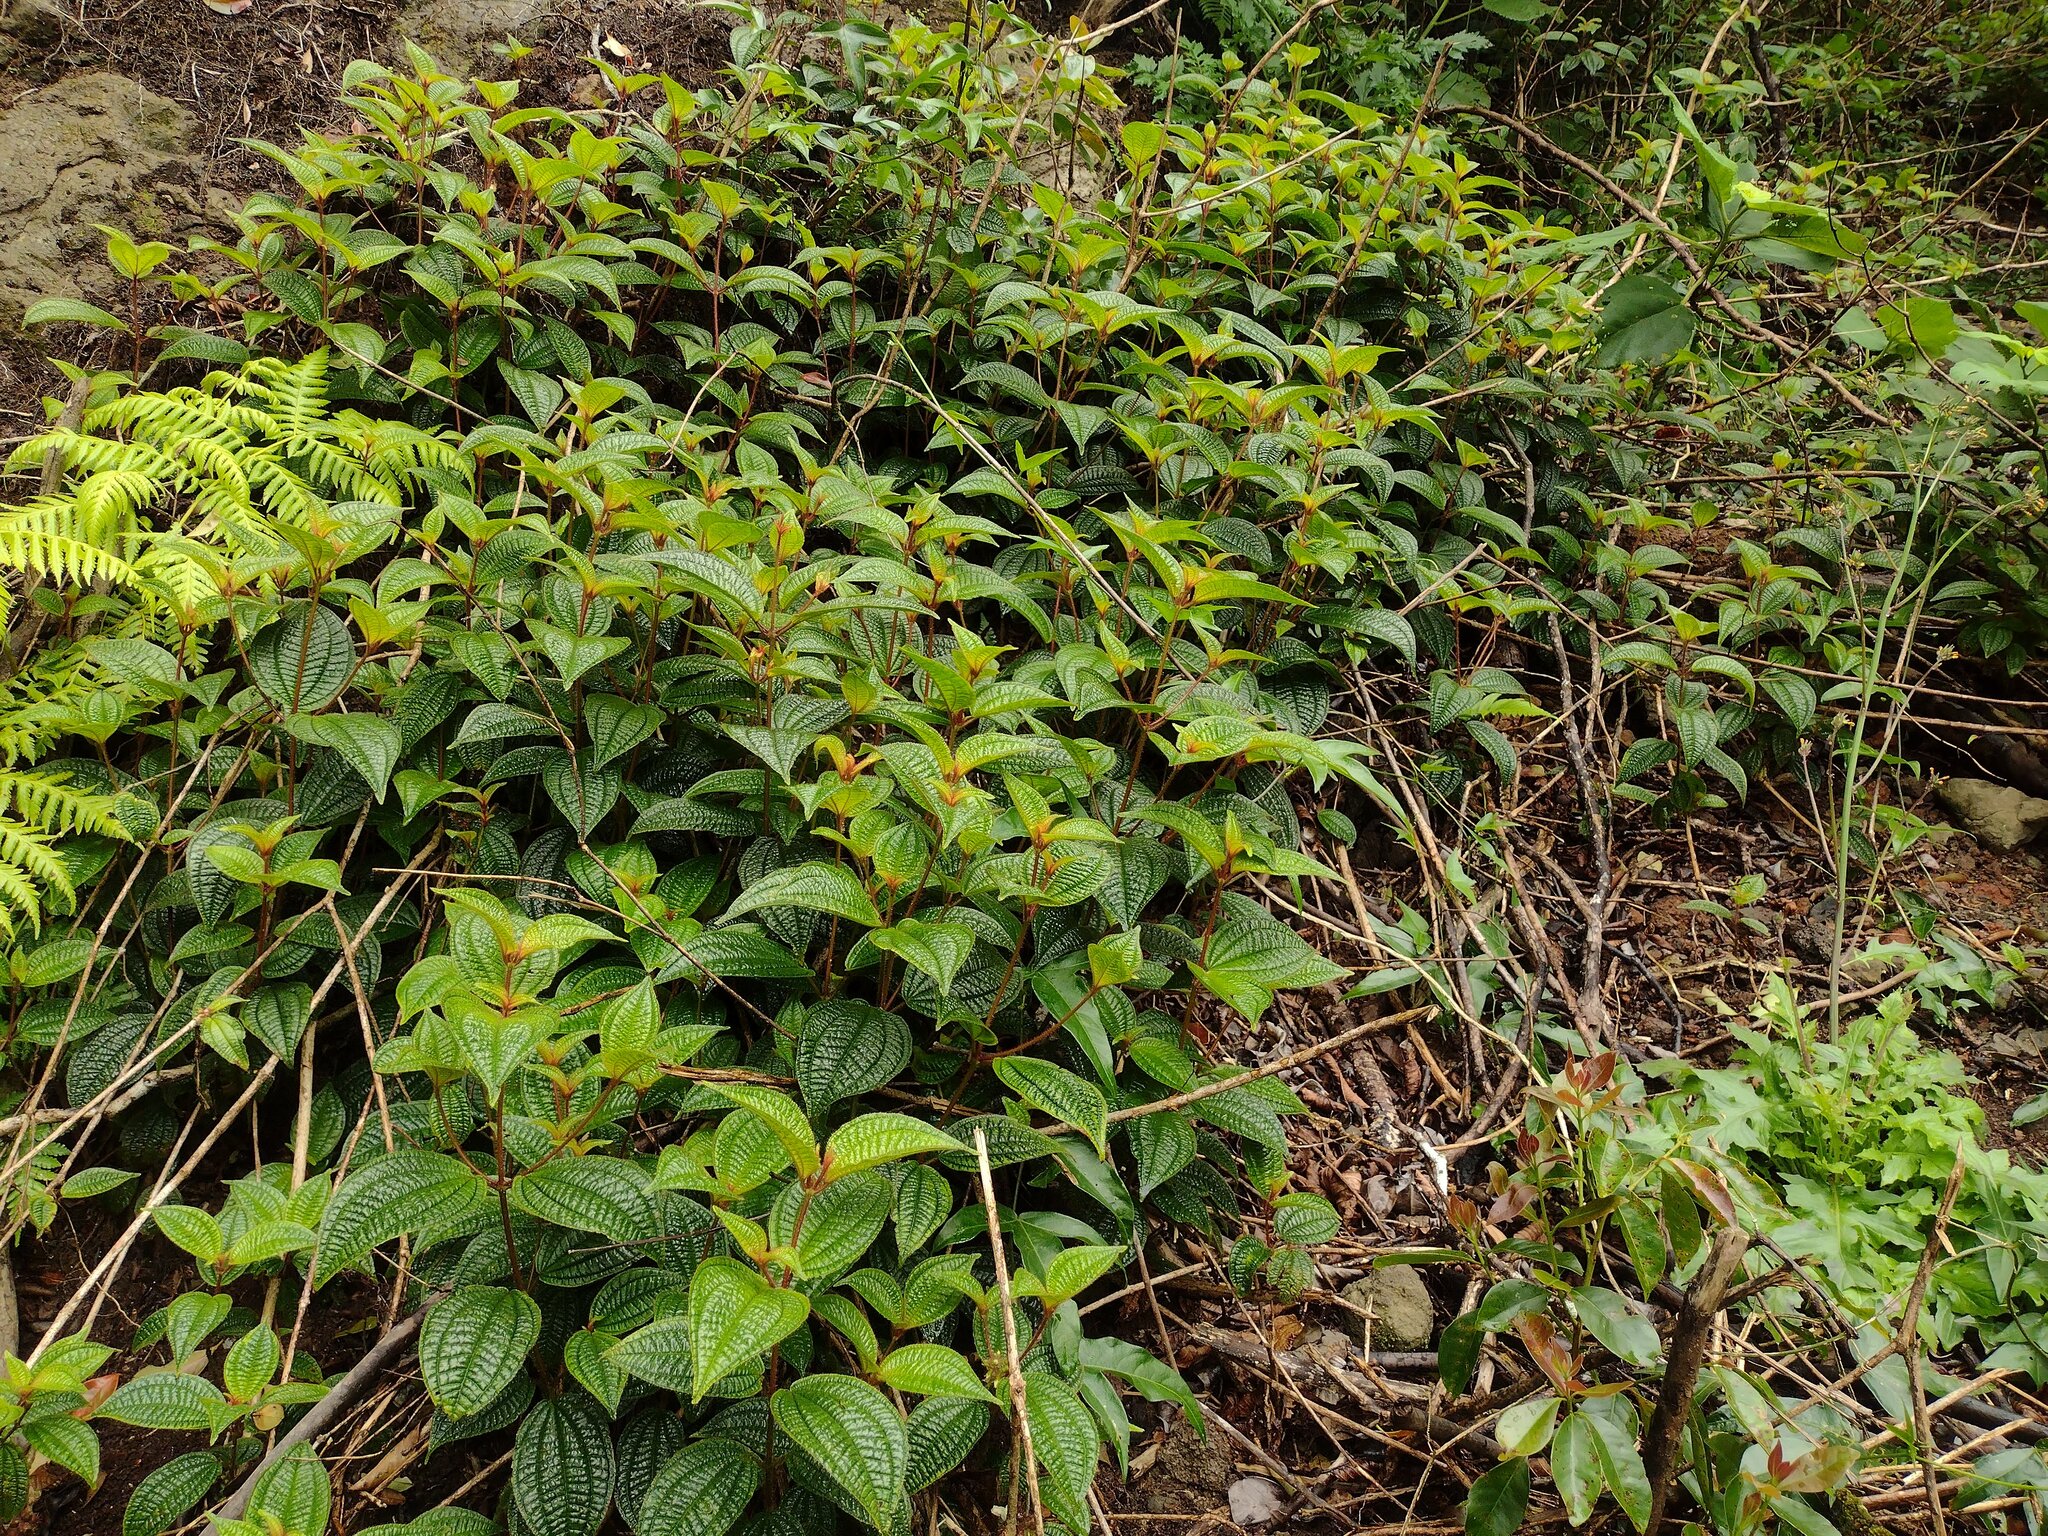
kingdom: Plantae
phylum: Tracheophyta
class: Magnoliopsida
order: Myrtales
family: Melastomataceae
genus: Miconia
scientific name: Miconia crenata
